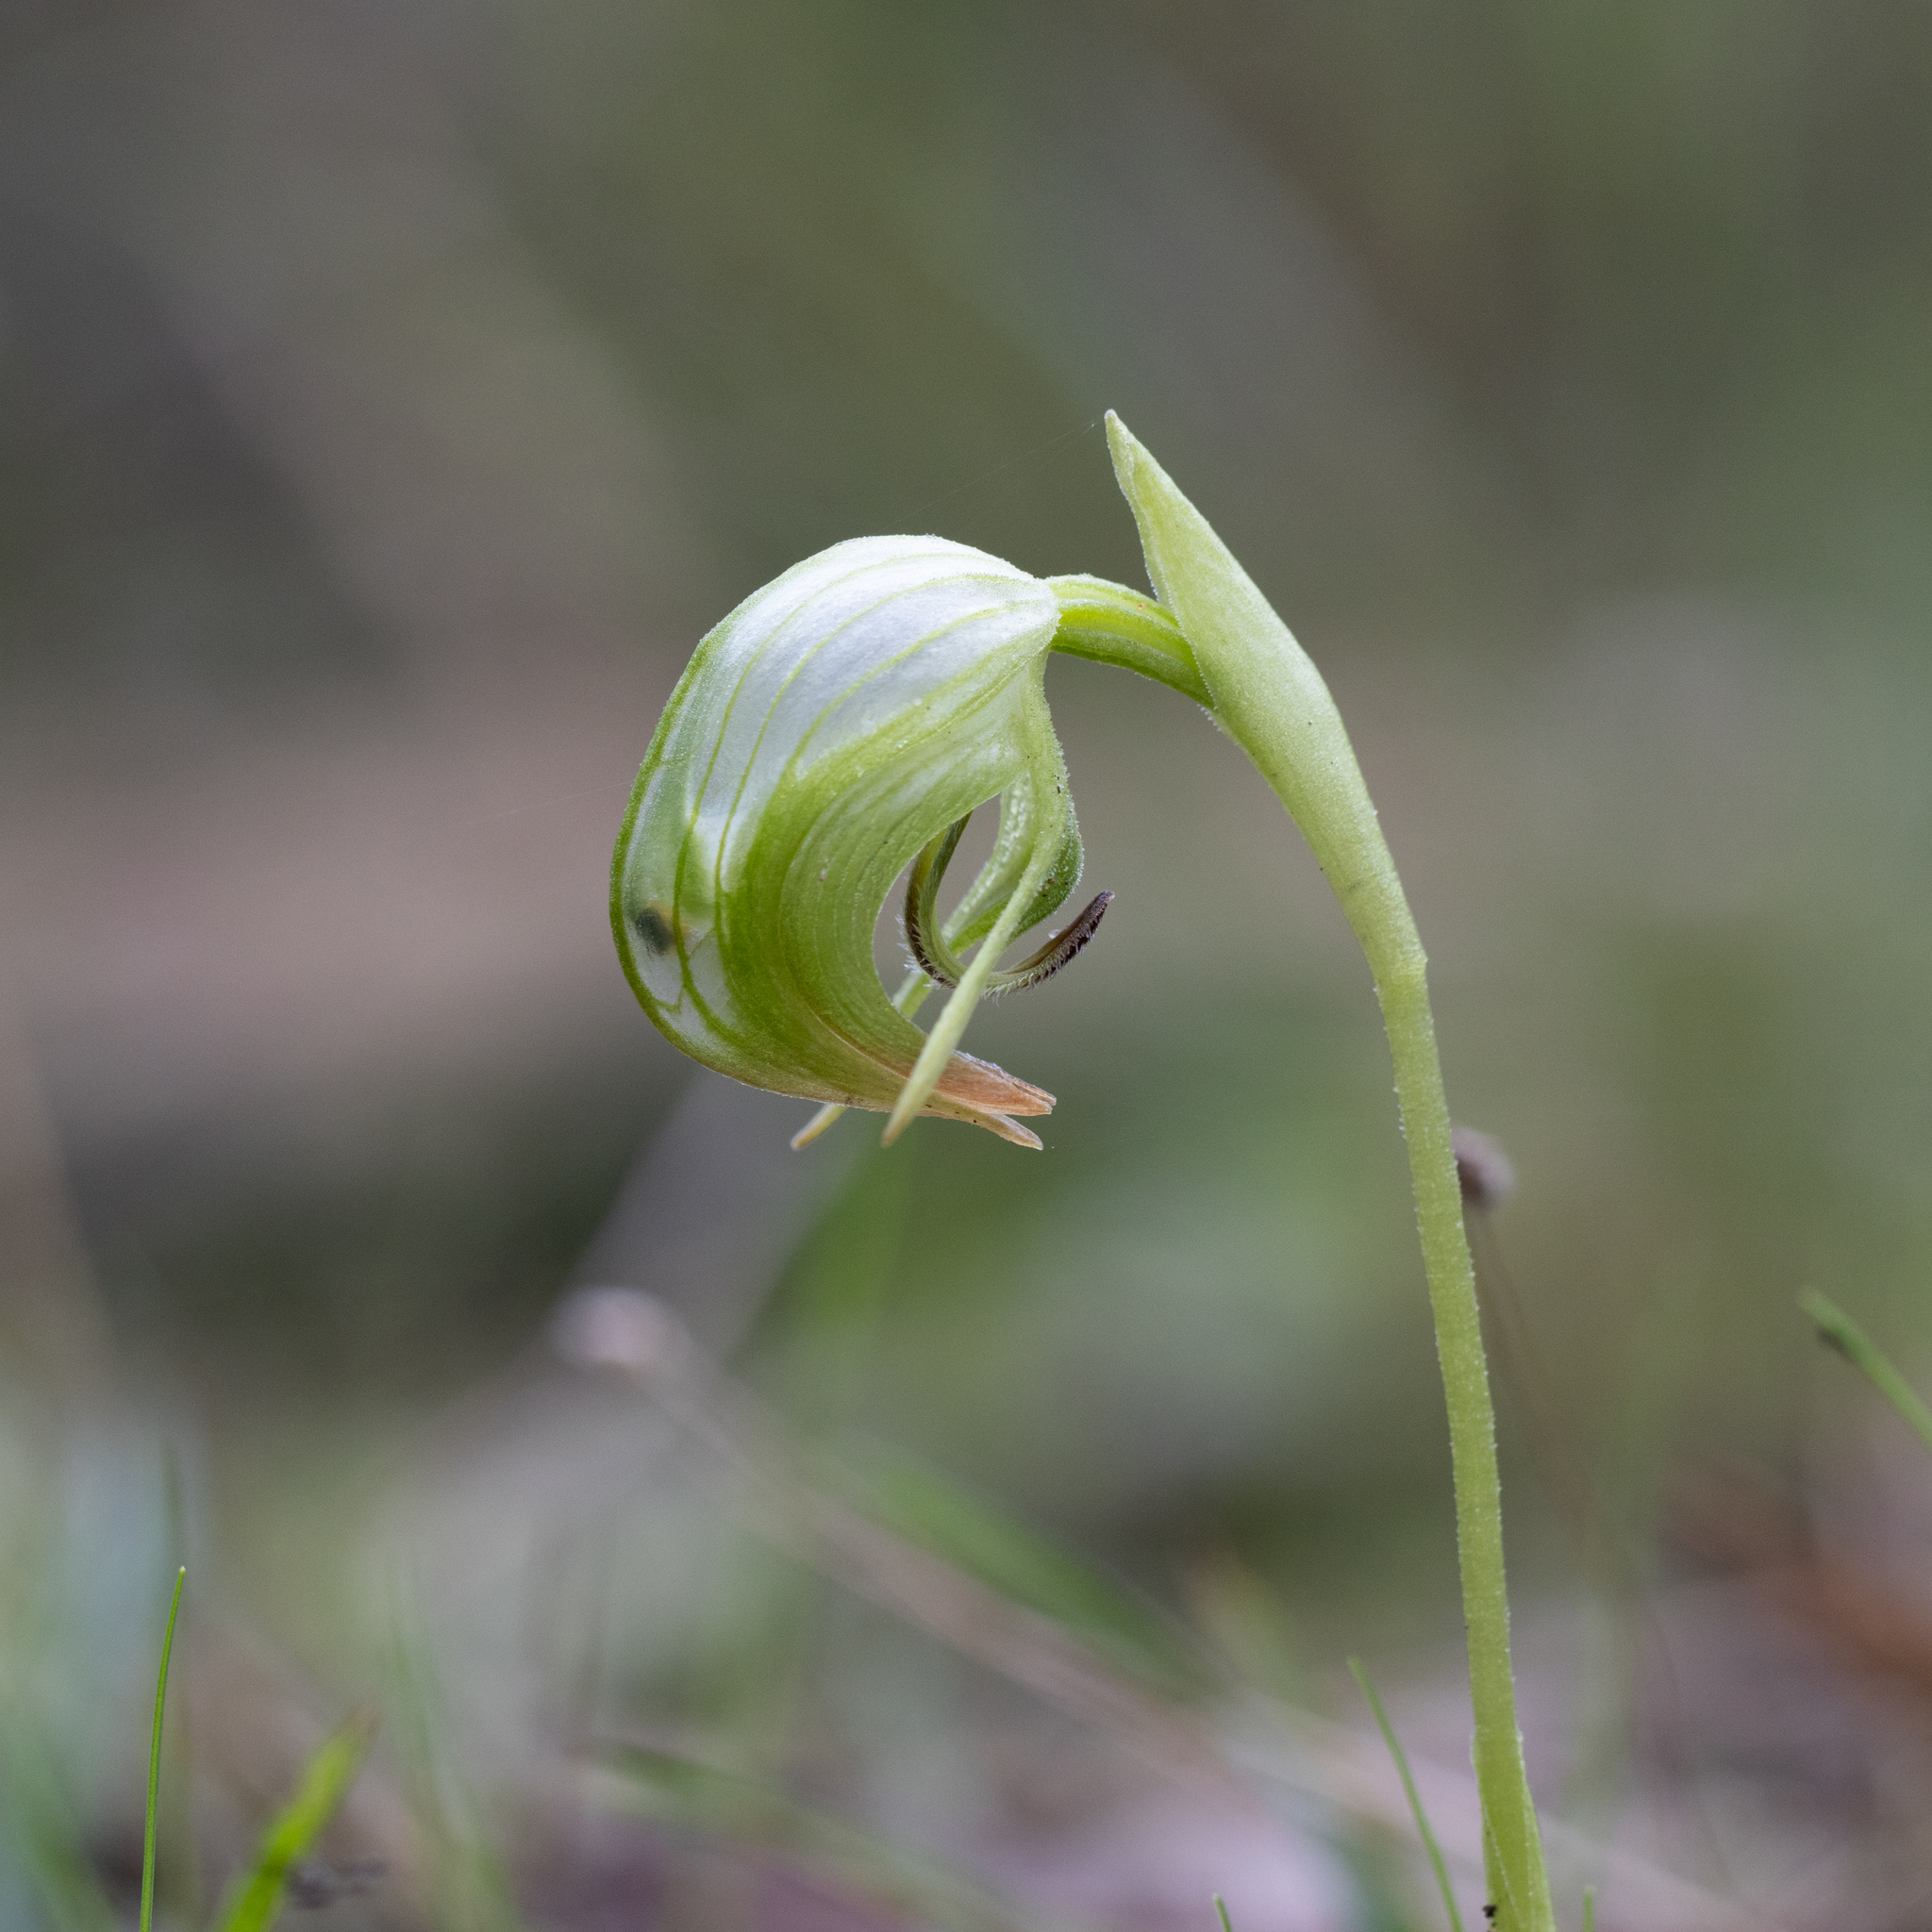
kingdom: Plantae
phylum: Tracheophyta
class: Liliopsida
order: Asparagales
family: Orchidaceae
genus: Pterostylis
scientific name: Pterostylis nutans
